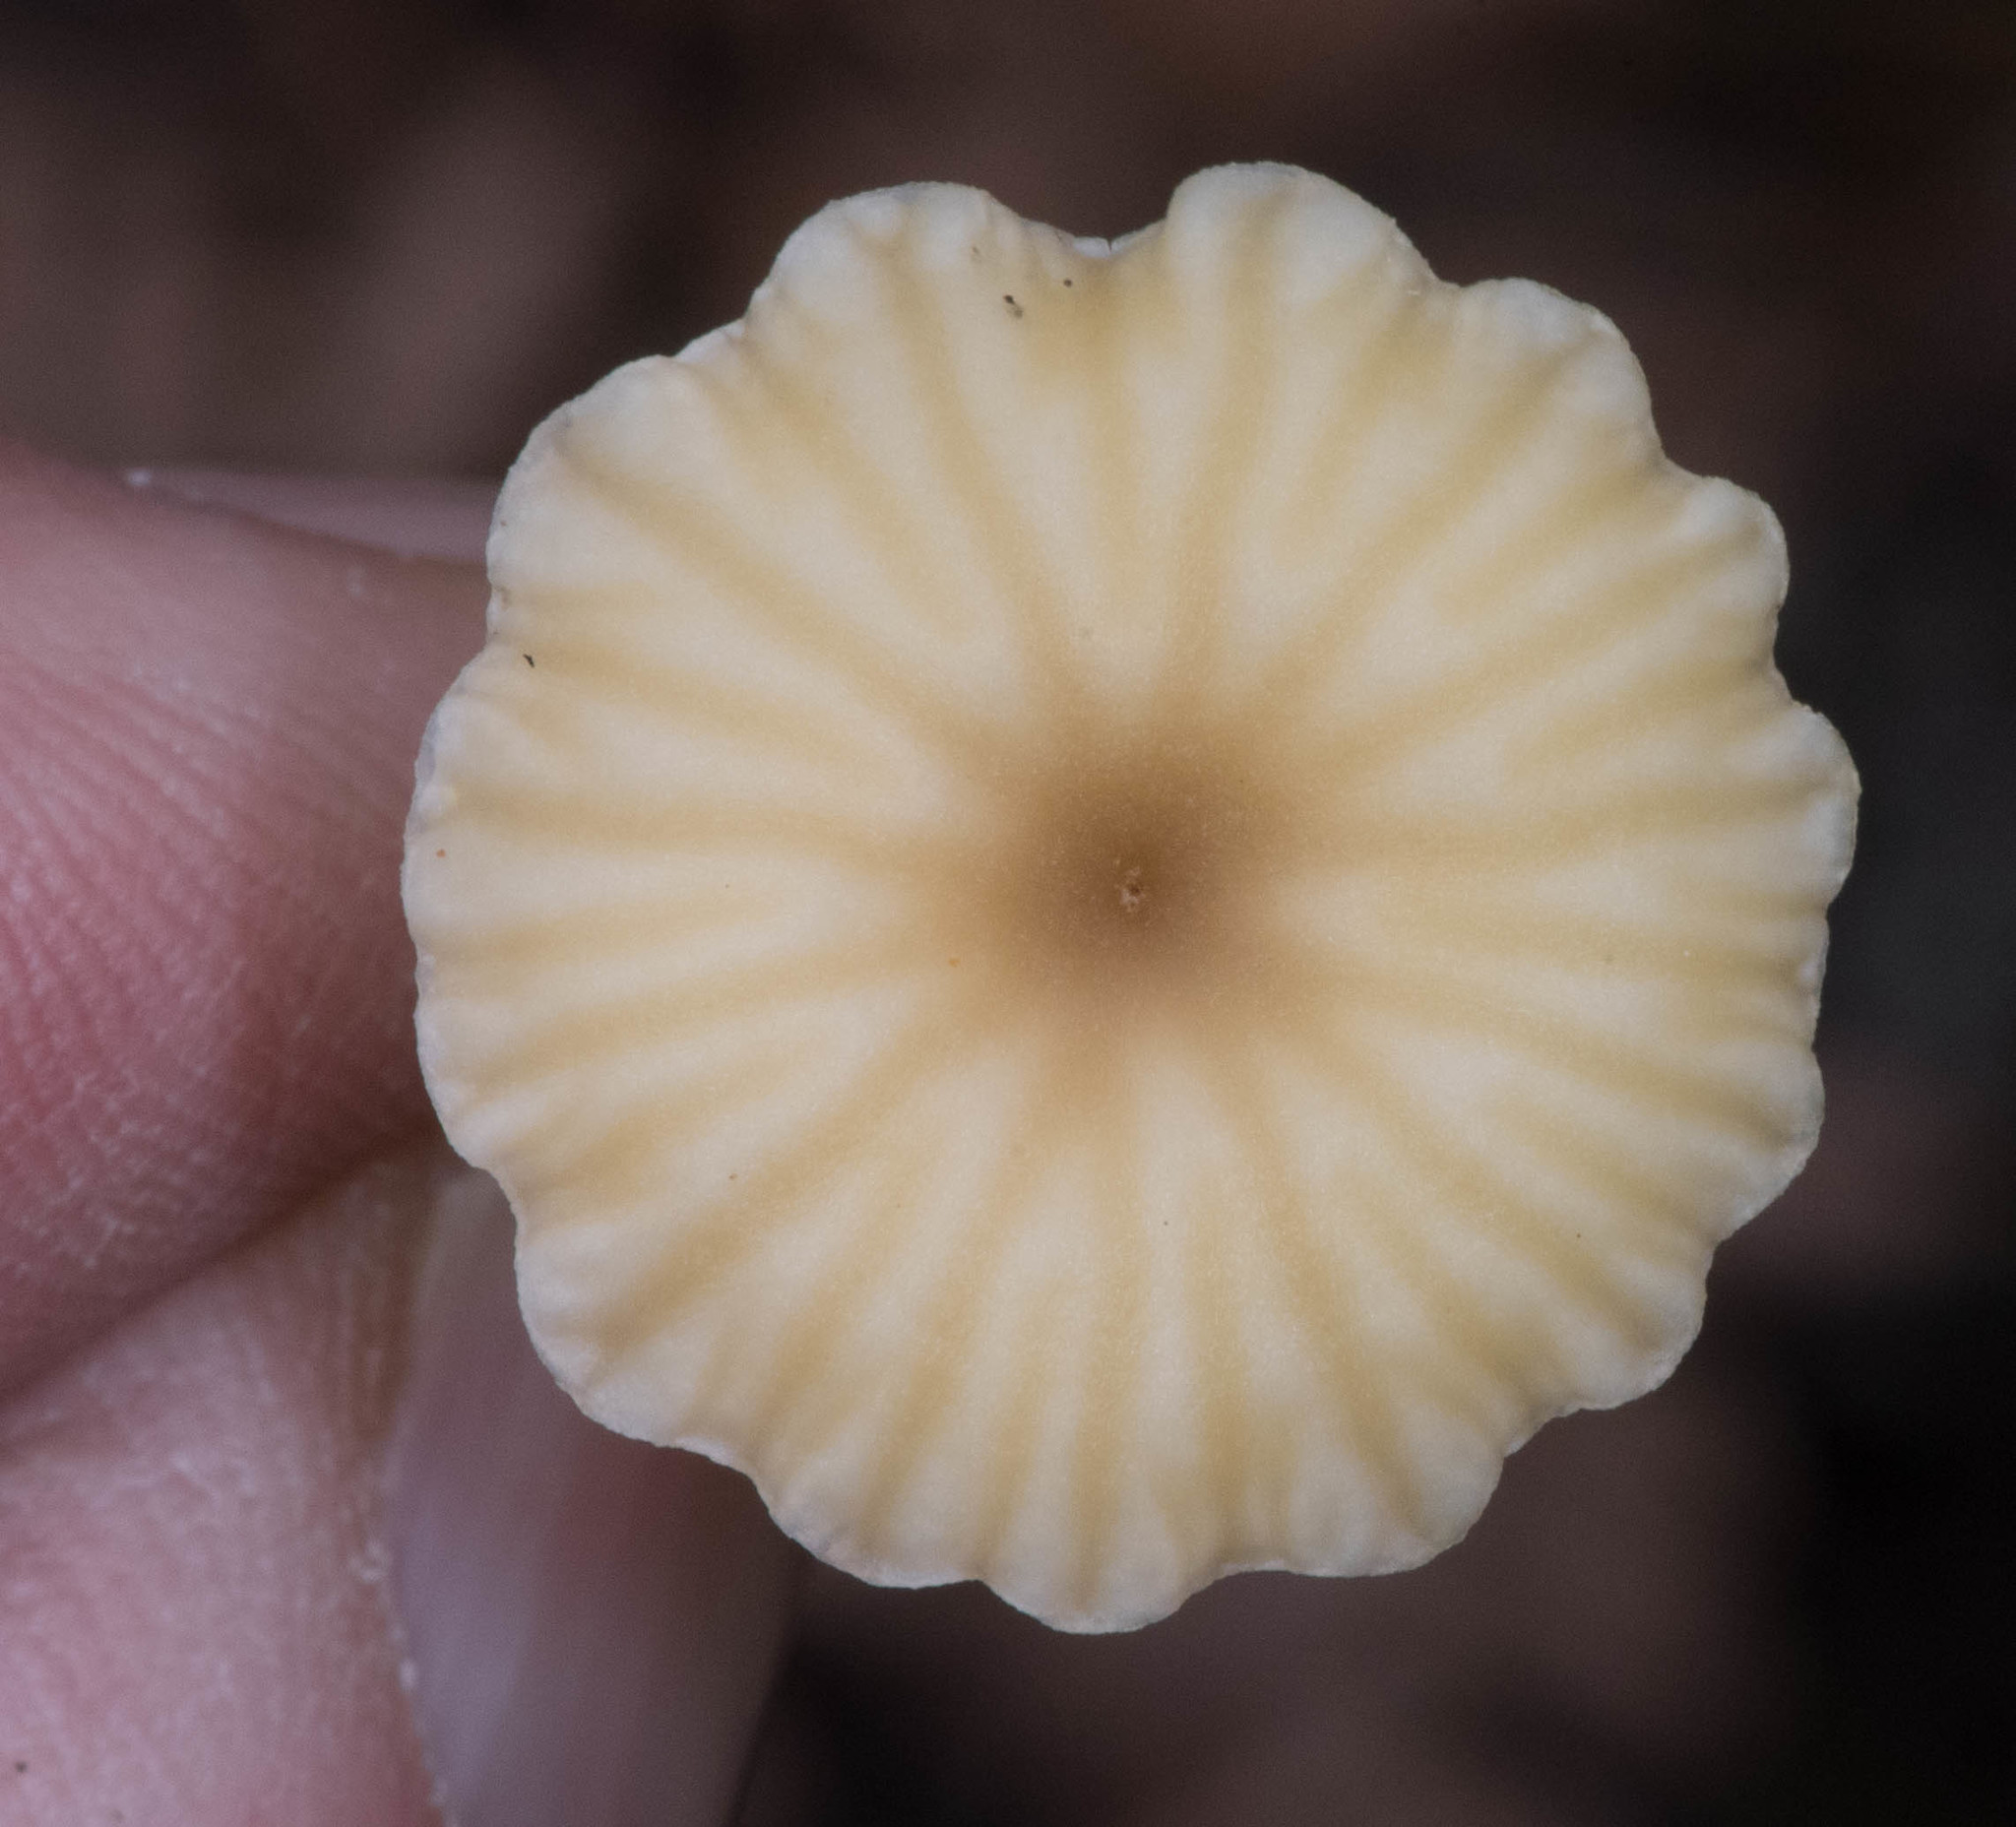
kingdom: Fungi
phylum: Basidiomycota
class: Agaricomycetes
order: Agaricales
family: Hygrophoraceae
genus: Lichenomphalia
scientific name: Lichenomphalia
